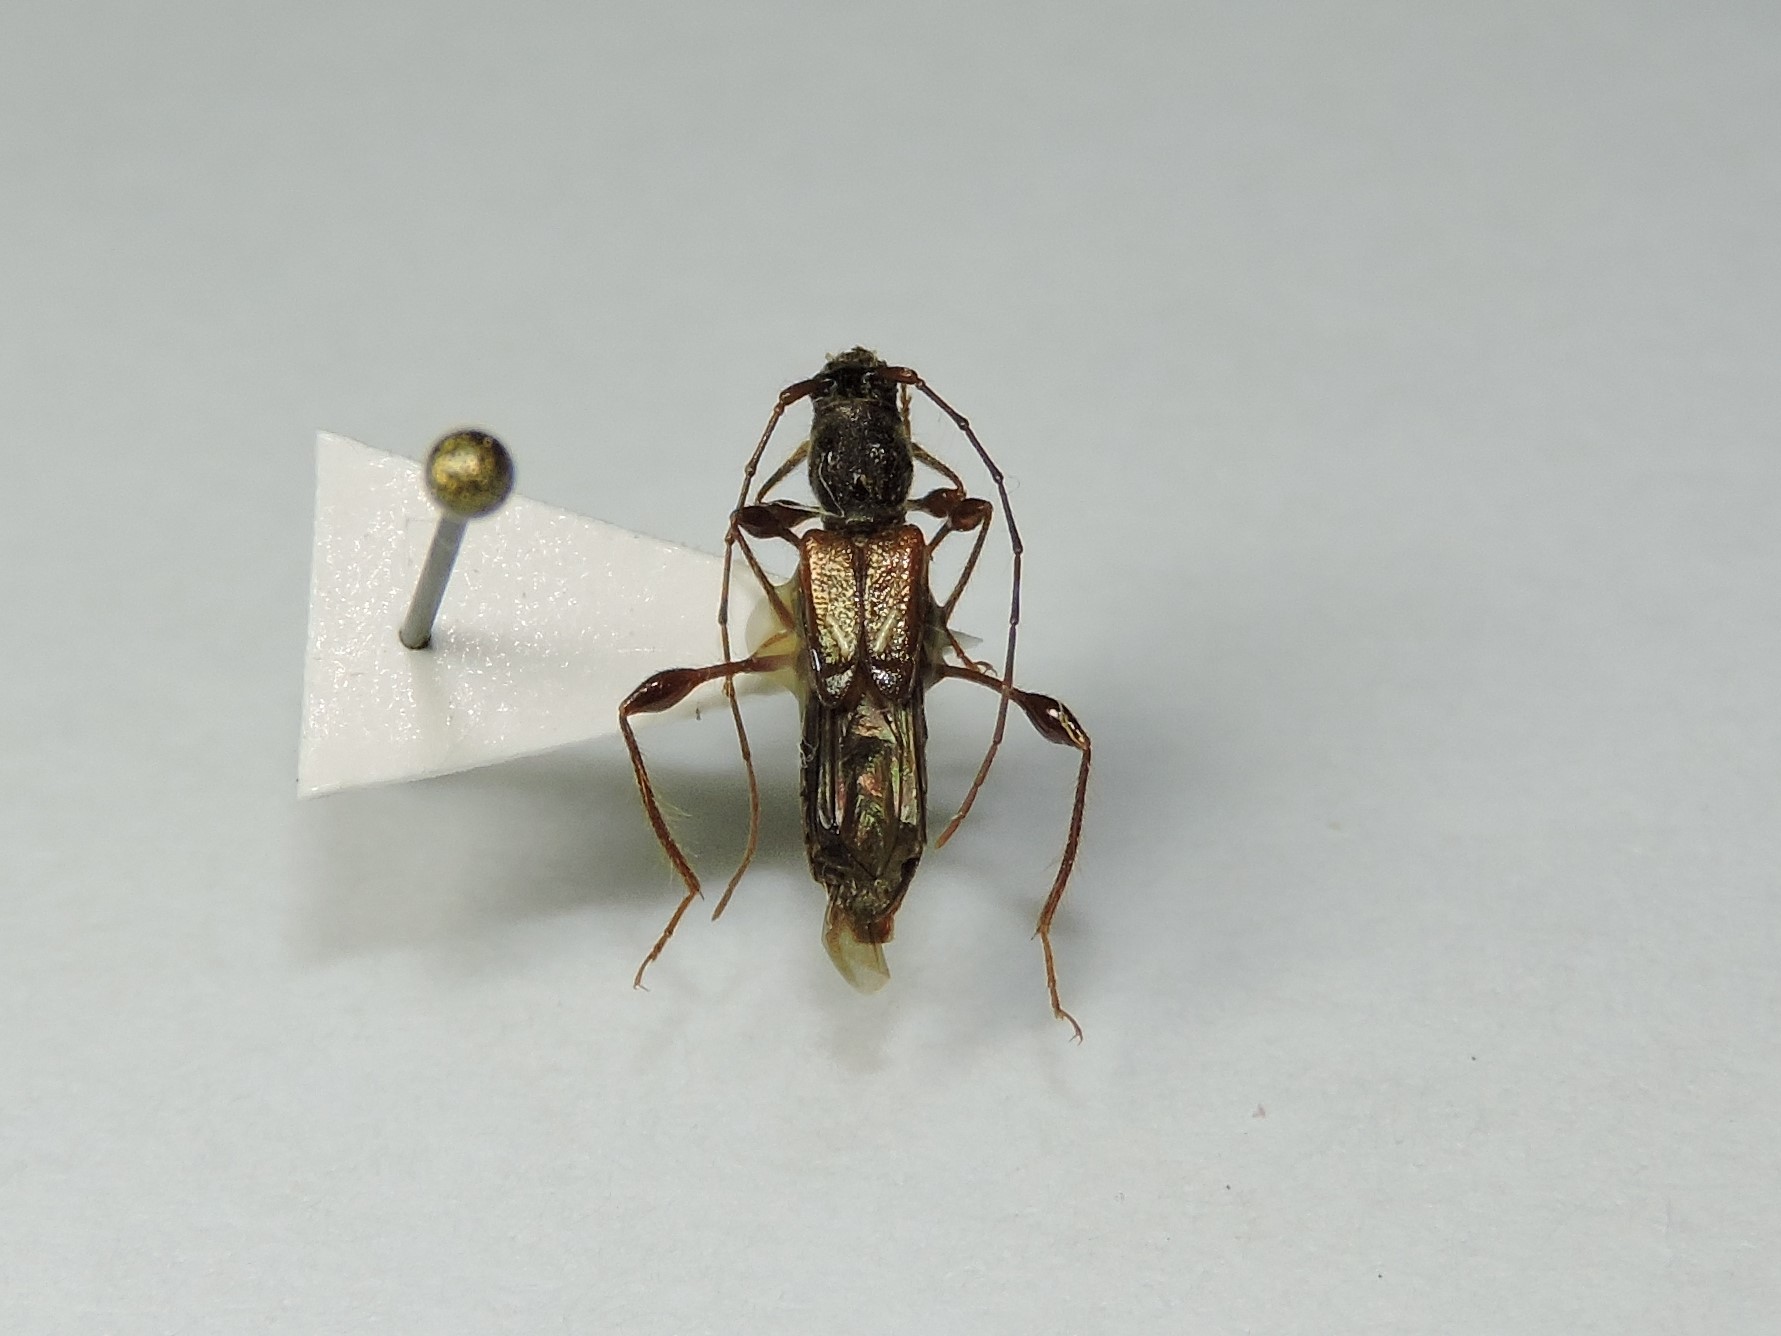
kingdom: Animalia
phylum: Arthropoda
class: Insecta
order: Coleoptera
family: Cerambycidae
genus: Molorchus
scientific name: Molorchus minor
